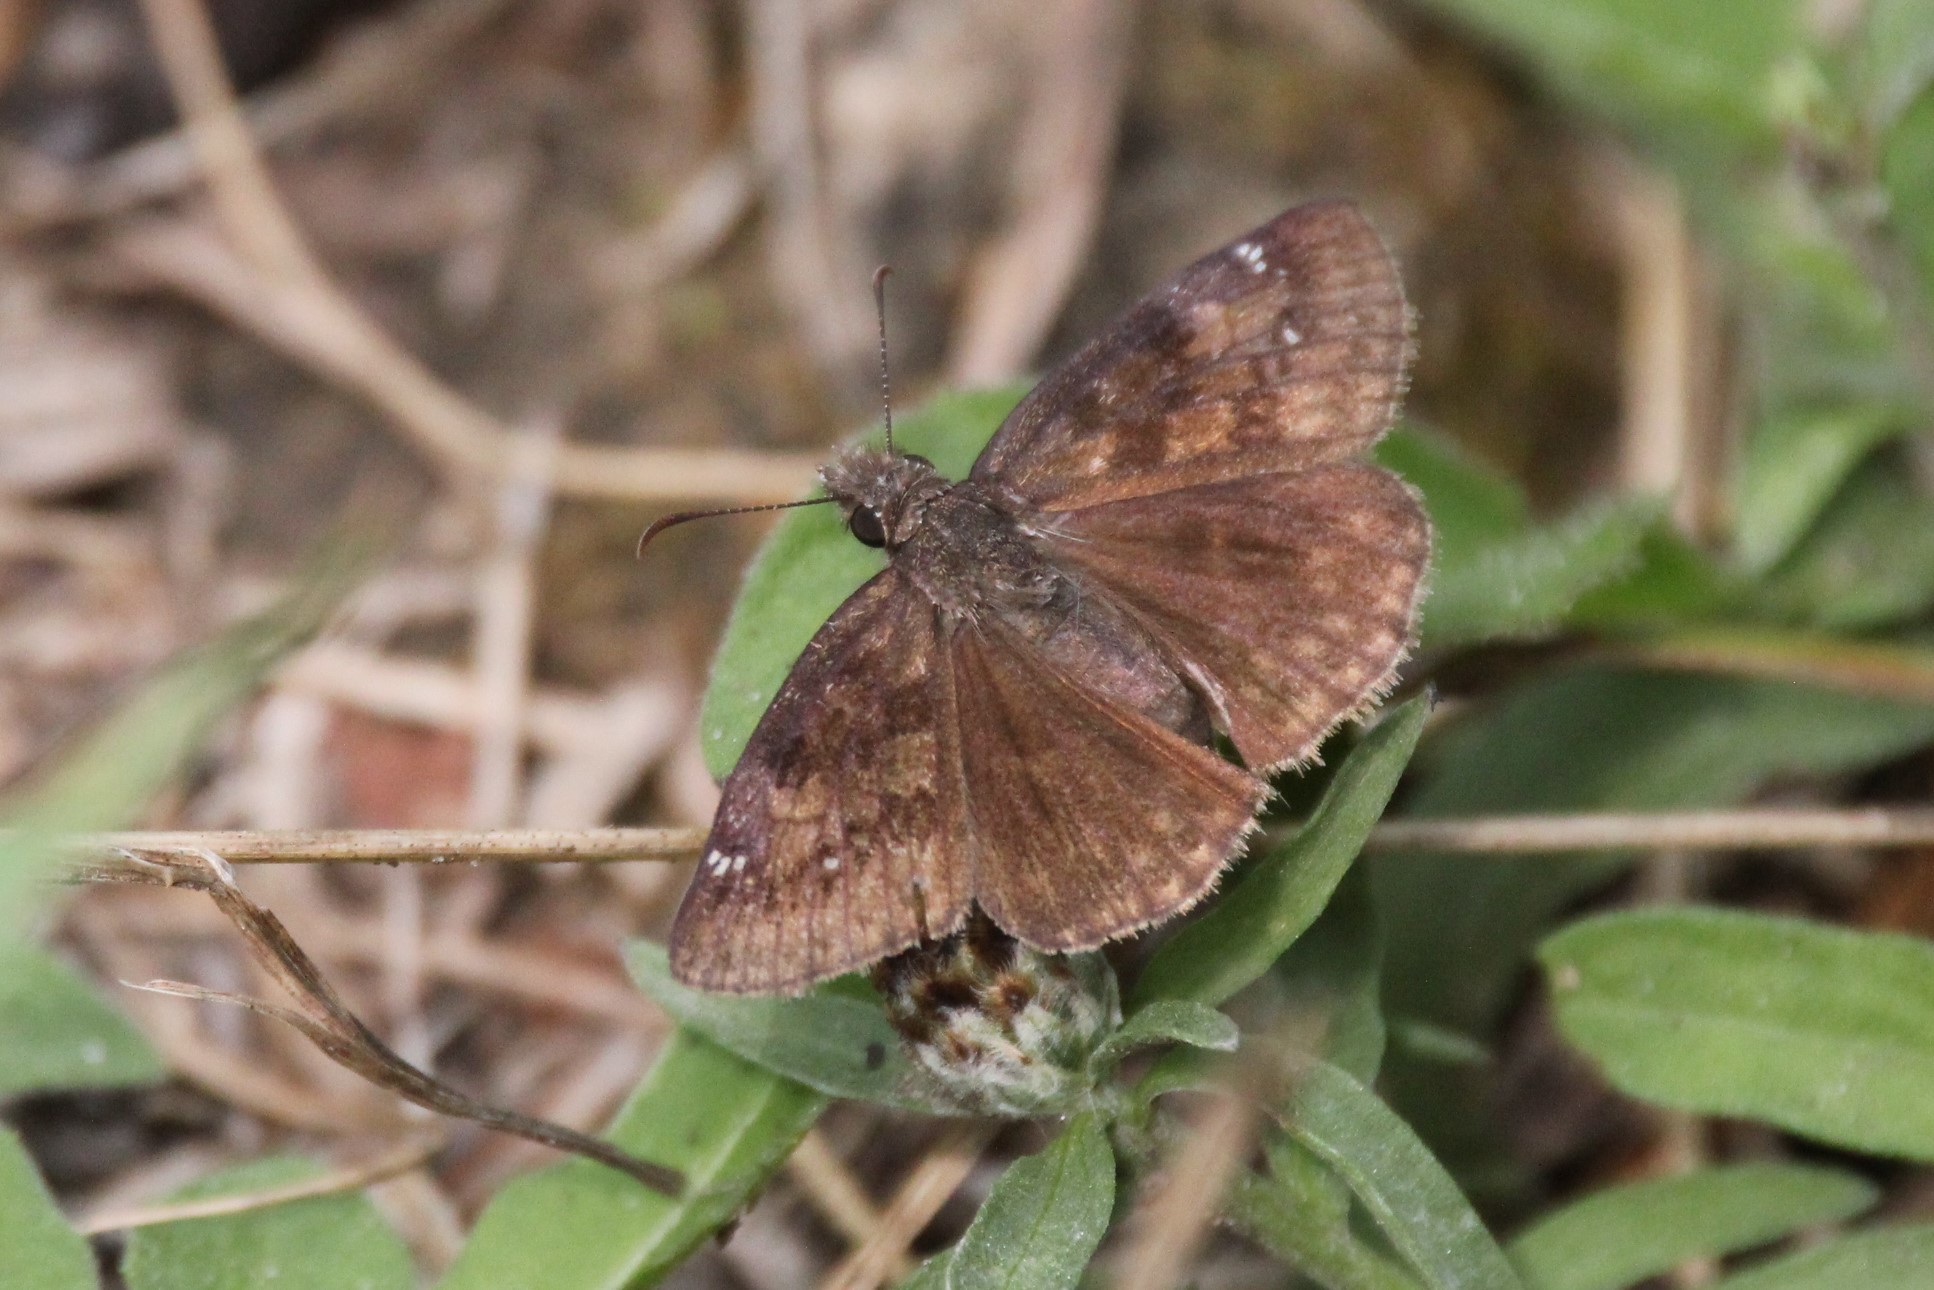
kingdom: Animalia
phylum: Arthropoda
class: Insecta
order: Lepidoptera
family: Hesperiidae
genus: Erynnis
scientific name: Erynnis baptisiae
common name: Wild indigo duskywing
